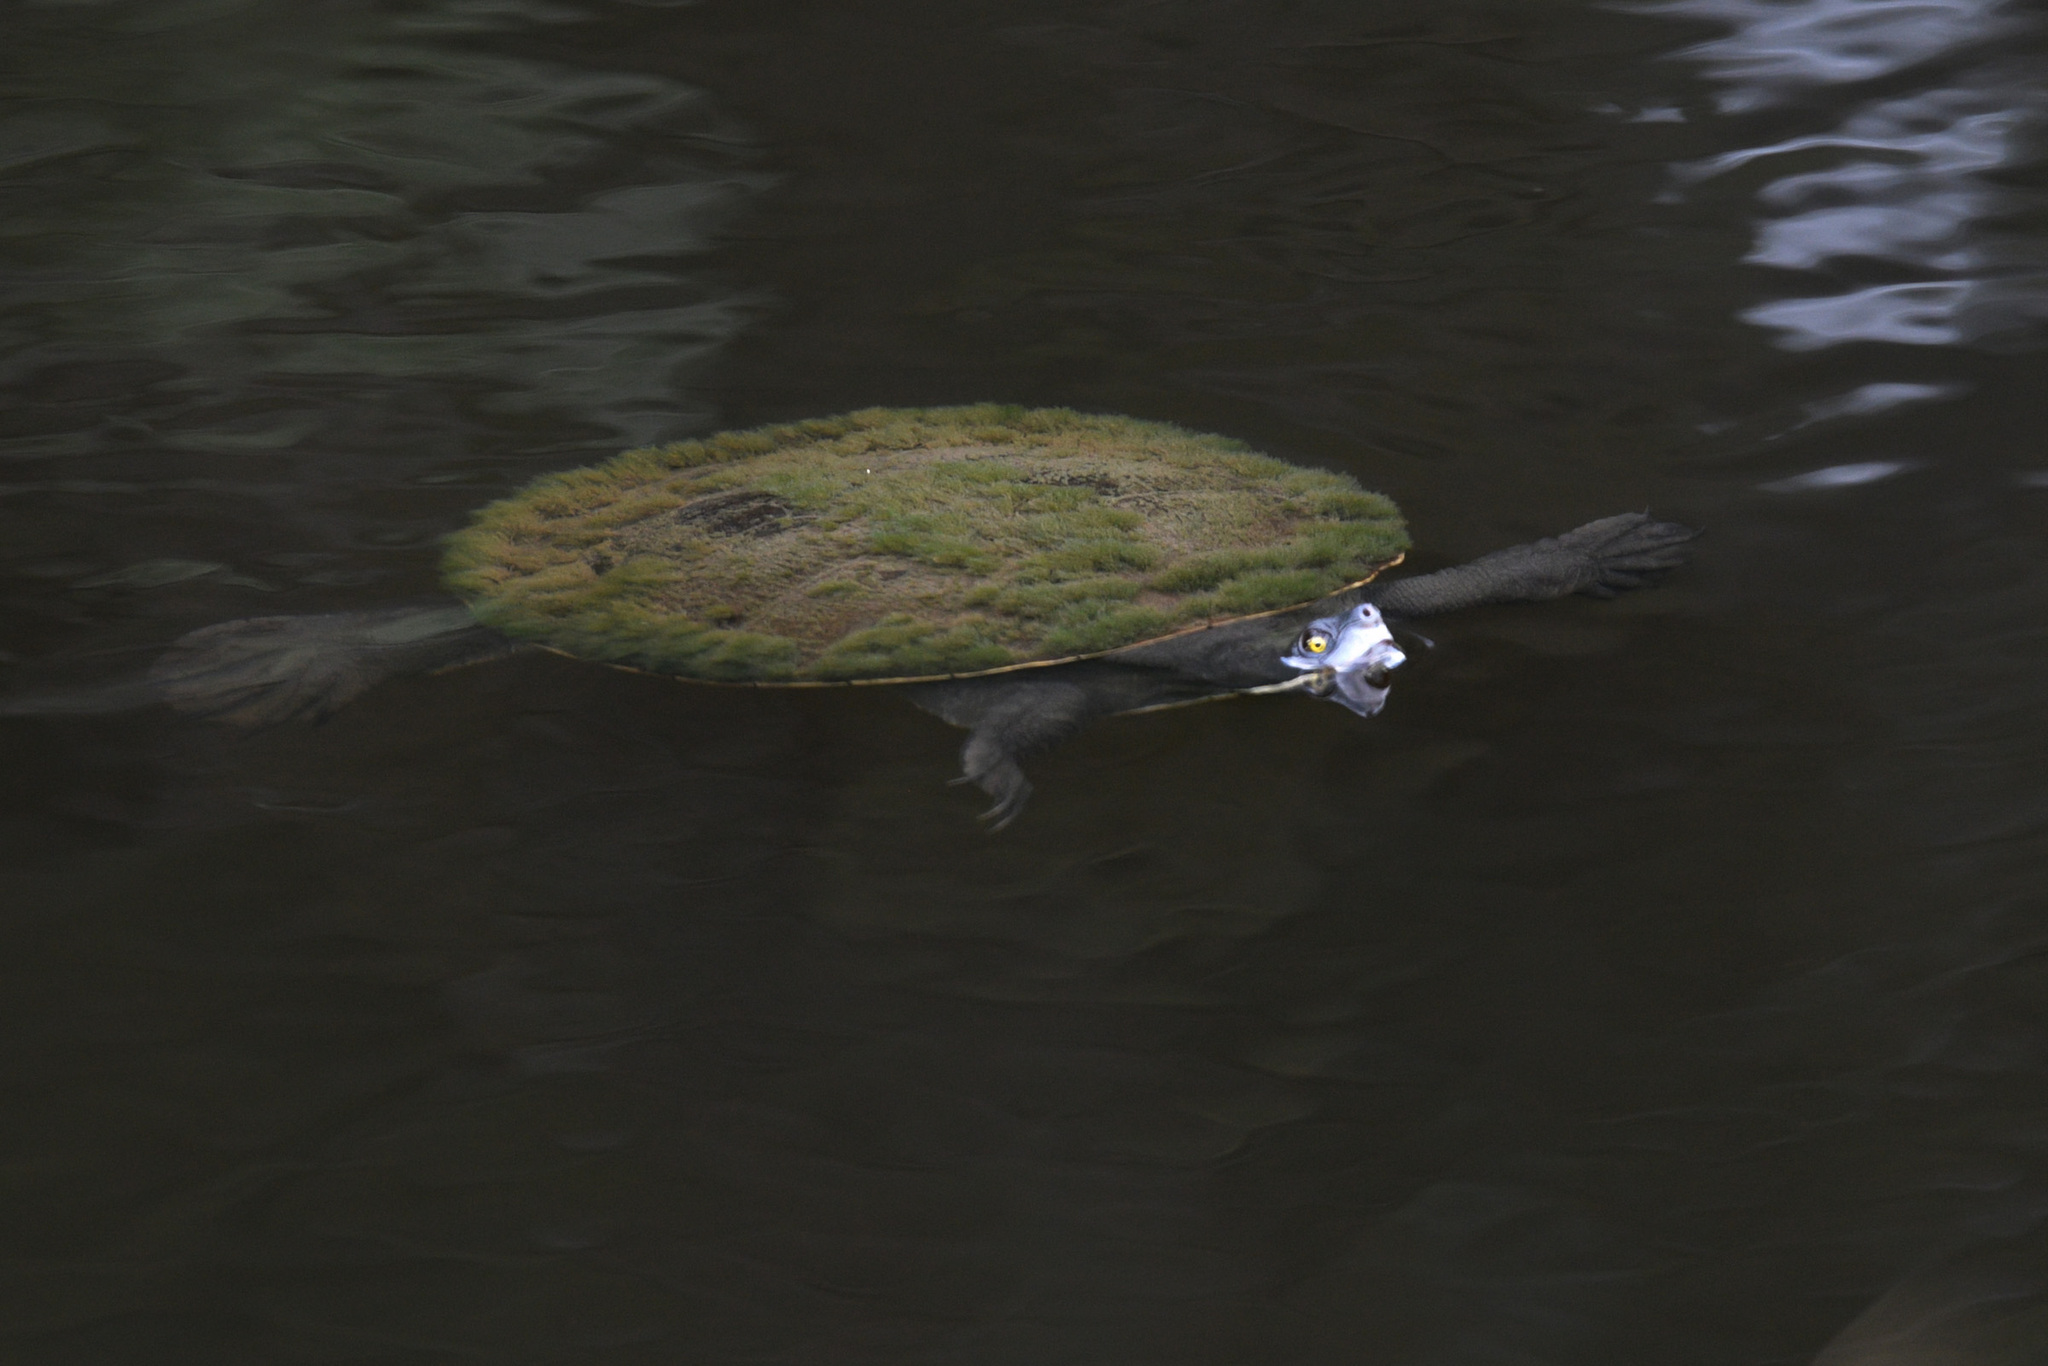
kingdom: Animalia
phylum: Chordata
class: Testudines
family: Chelidae
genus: Emydura
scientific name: Emydura macquarii
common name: Murray river turtle
